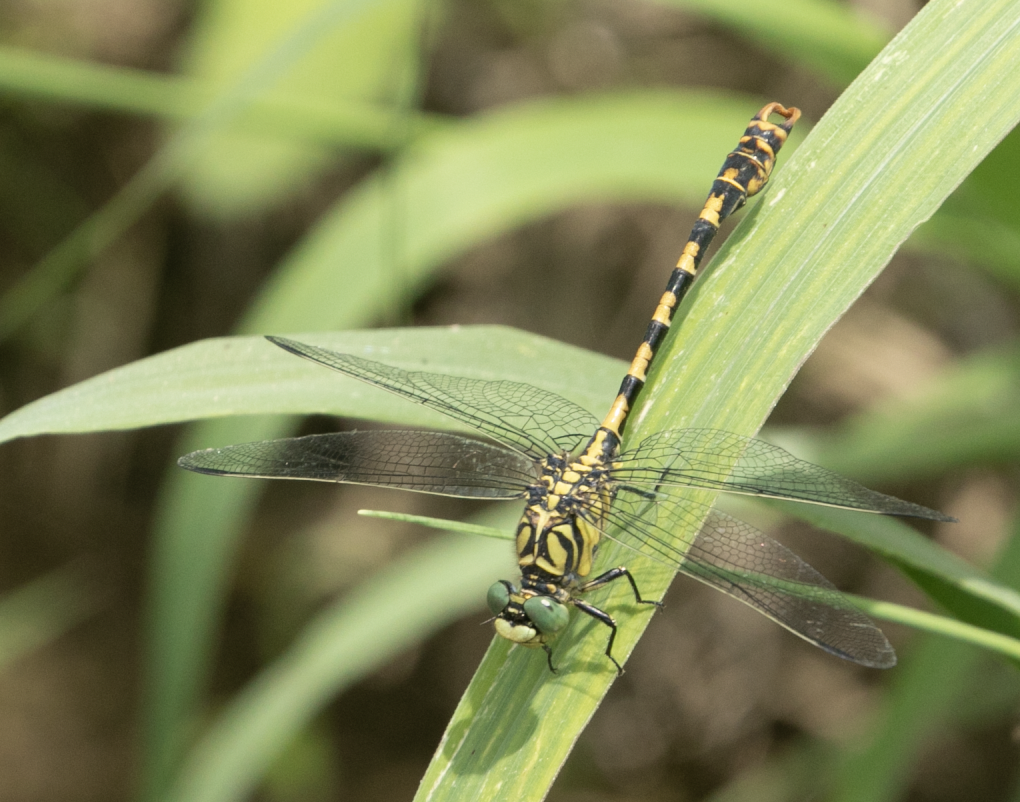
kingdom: Animalia
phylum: Arthropoda
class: Insecta
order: Odonata
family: Gomphidae
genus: Onychogomphus
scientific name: Onychogomphus forcipatus
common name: Small pincertail
